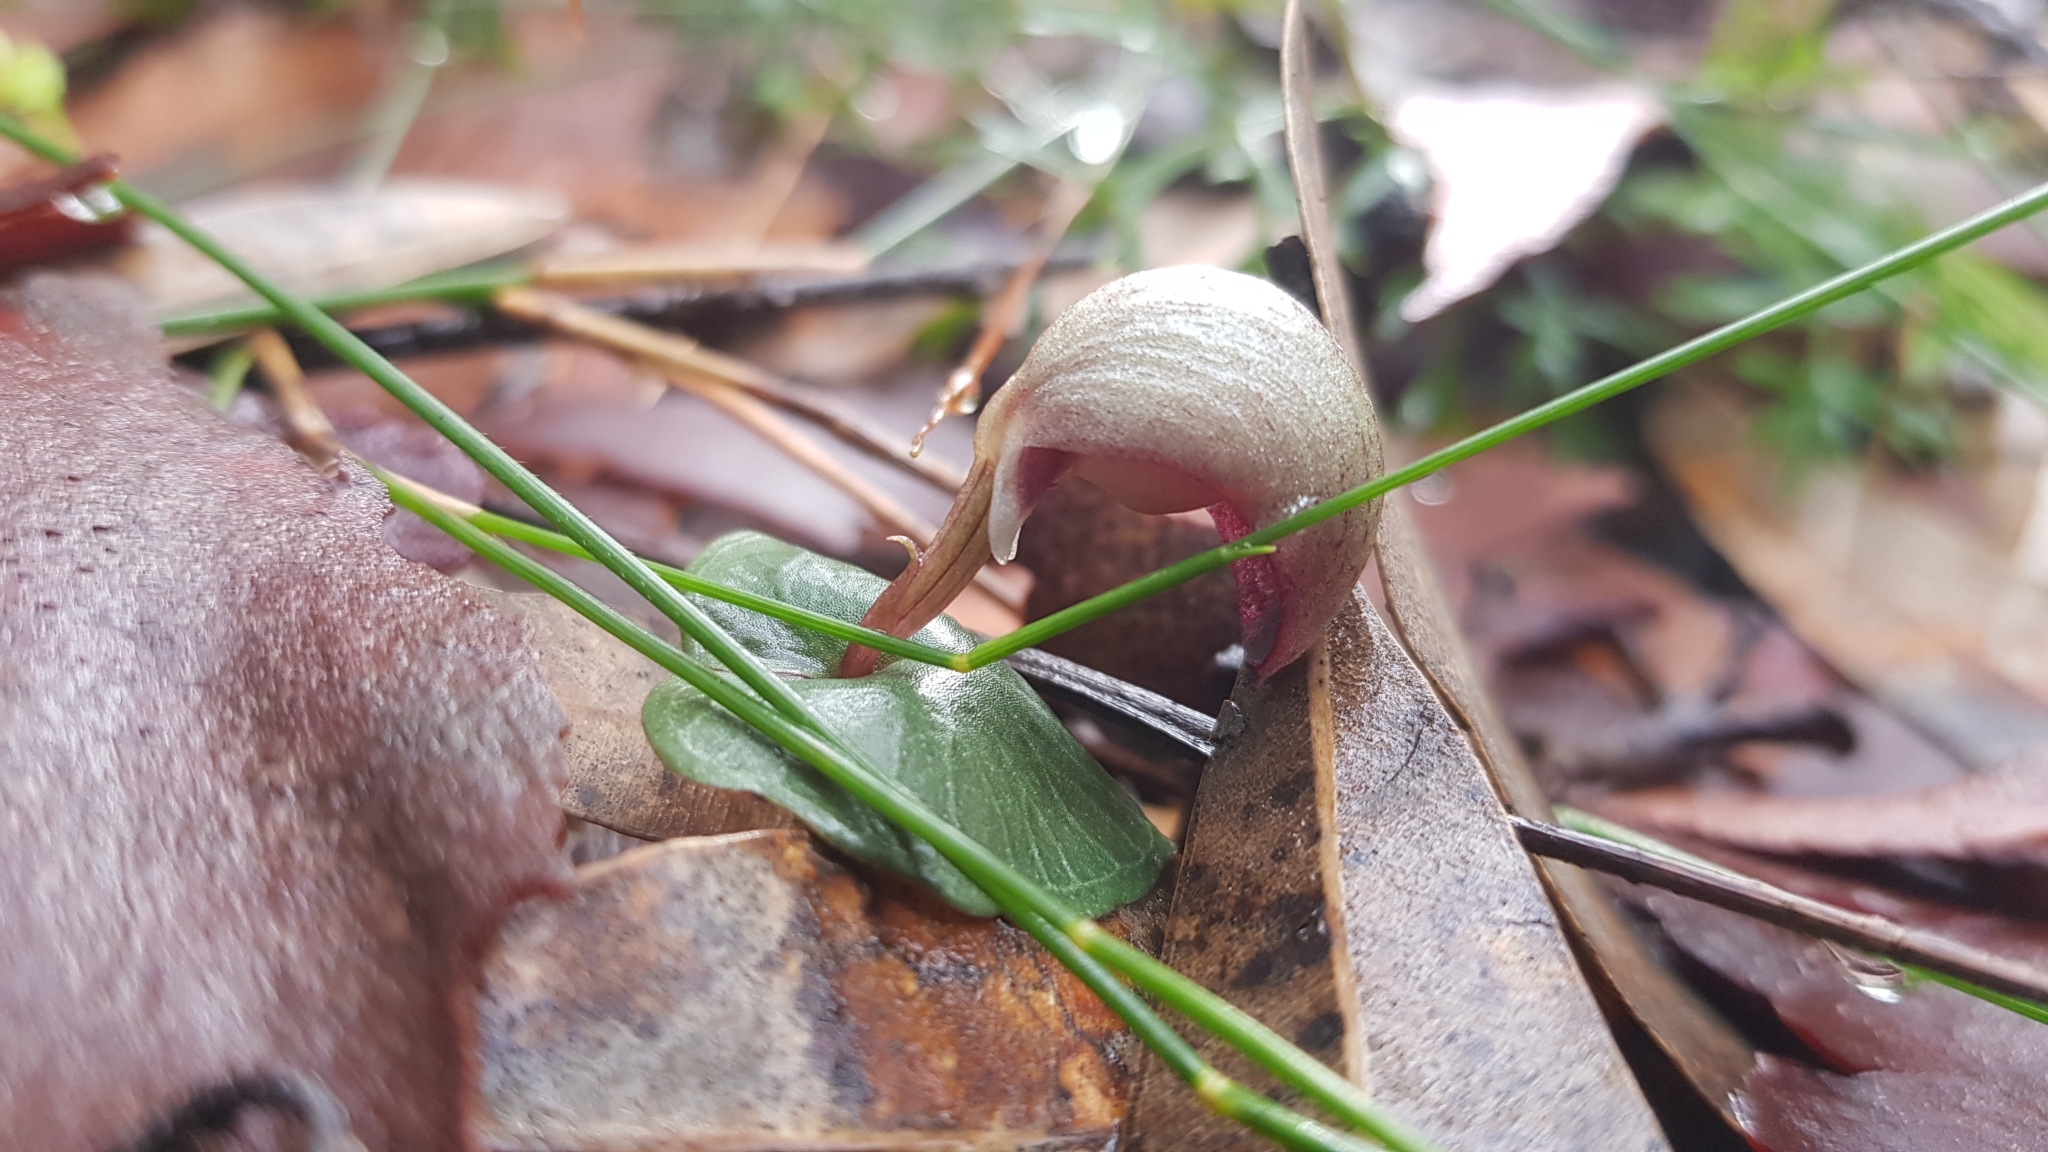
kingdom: Plantae
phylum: Tracheophyta
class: Liliopsida
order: Asparagales
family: Orchidaceae
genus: Corybas
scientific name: Corybas aconitiflorus
